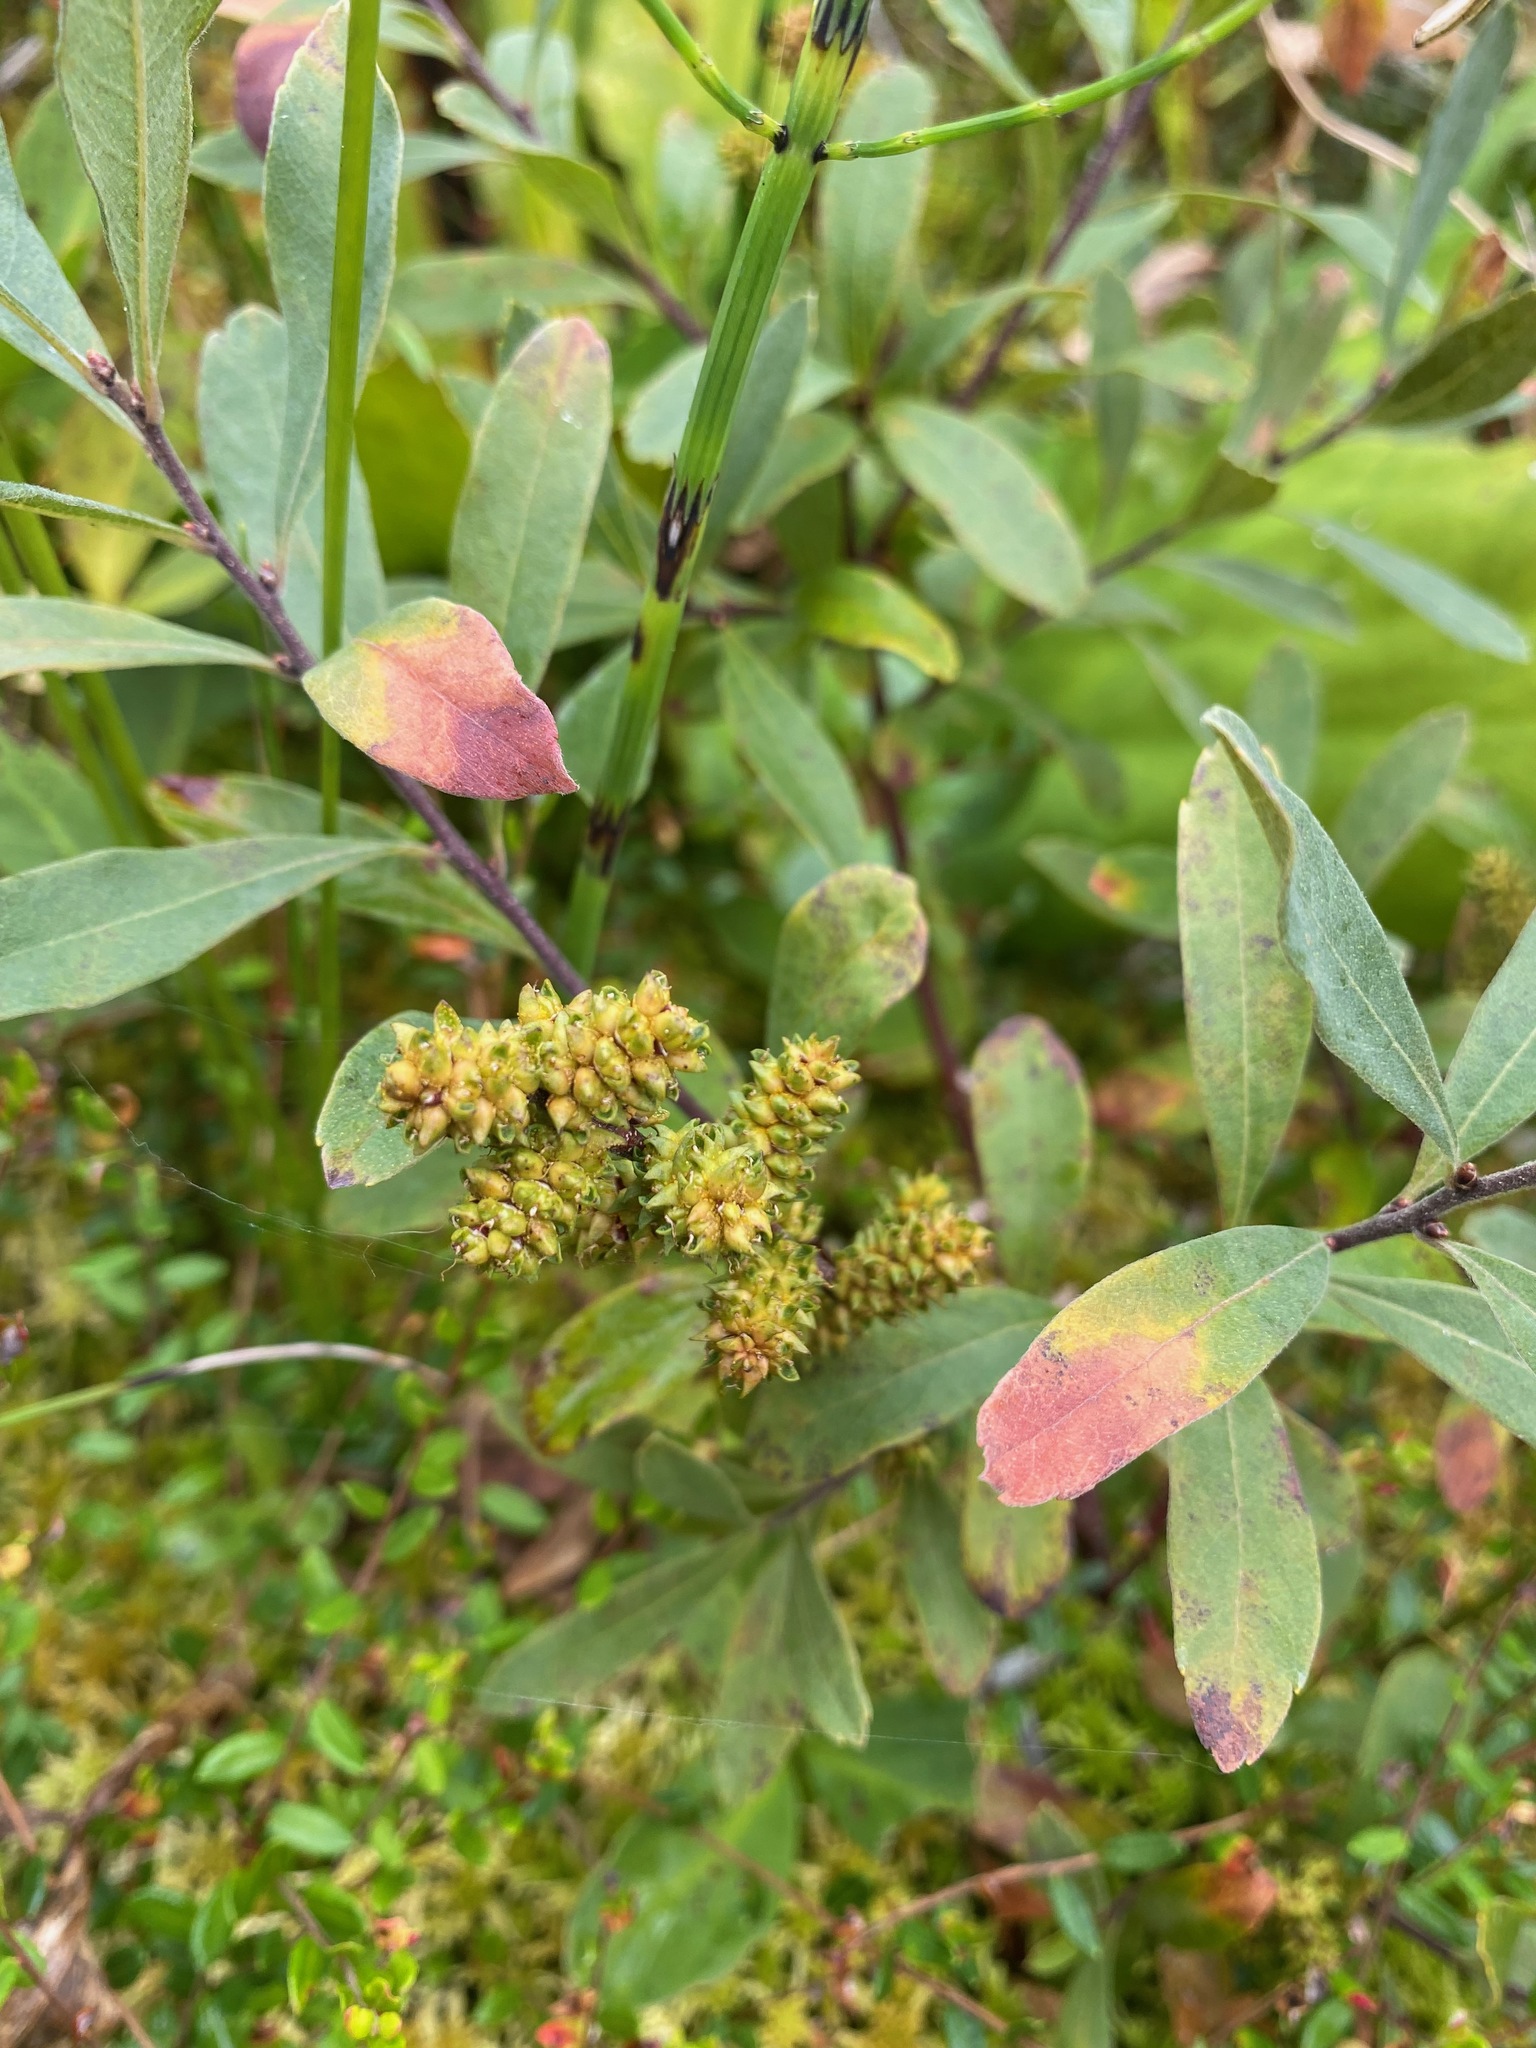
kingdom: Plantae
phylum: Tracheophyta
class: Magnoliopsida
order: Fagales
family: Myricaceae
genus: Myrica
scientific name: Myrica gale
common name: Sweet gale
